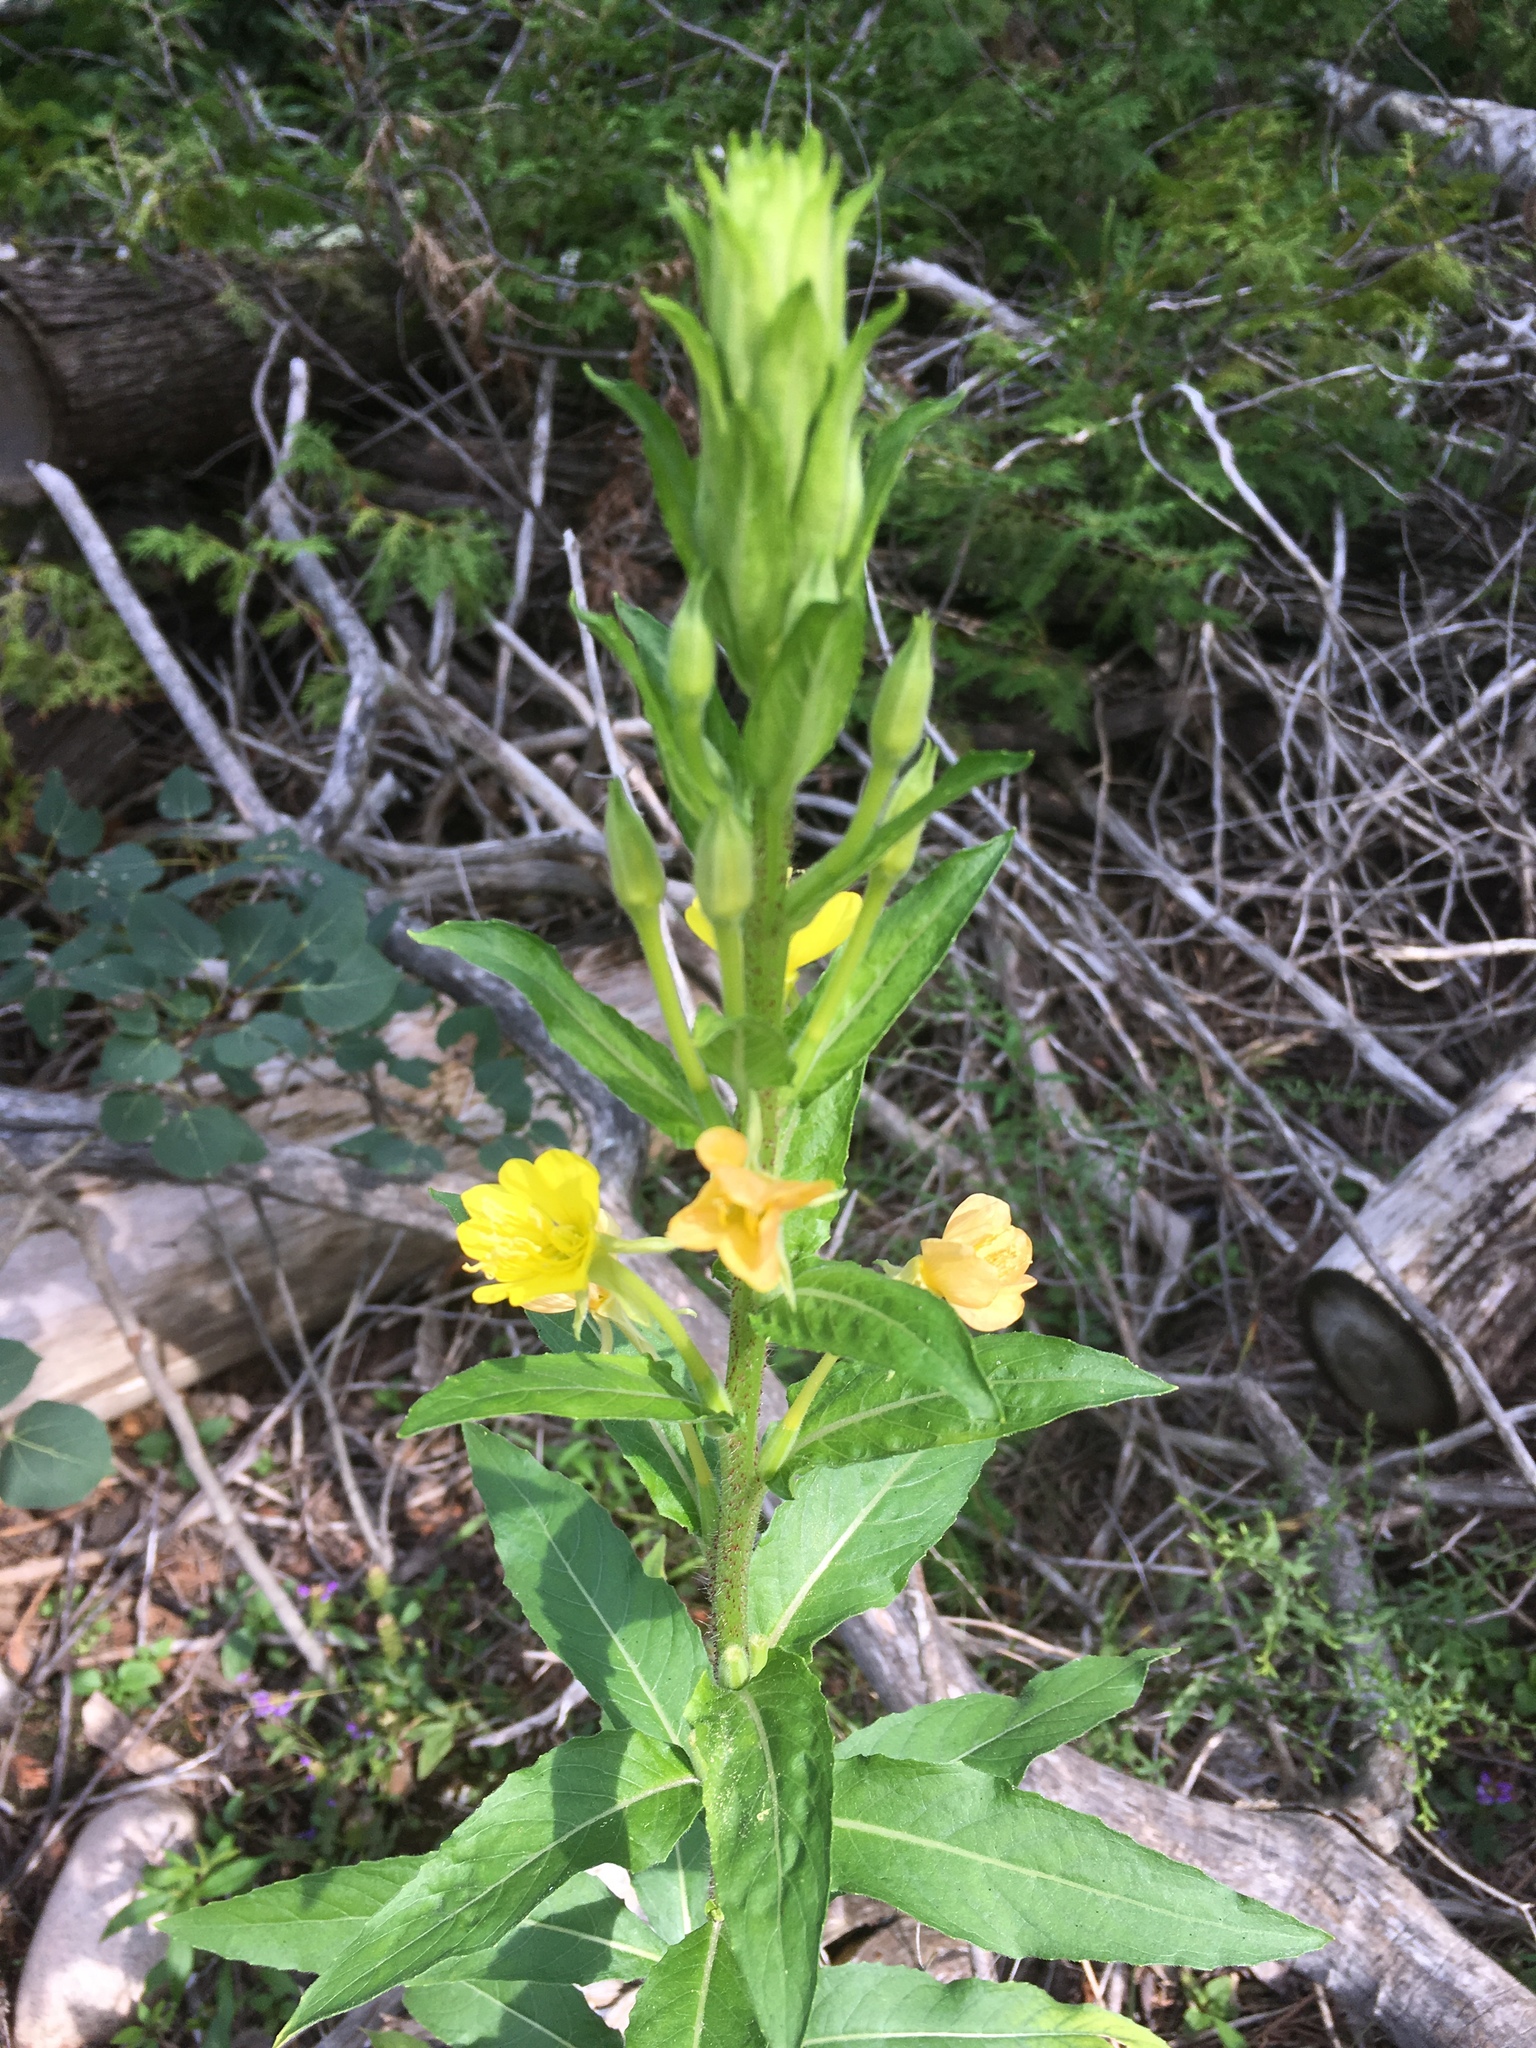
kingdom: Plantae
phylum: Tracheophyta
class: Magnoliopsida
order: Myrtales
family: Onagraceae
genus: Oenothera
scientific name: Oenothera biennis
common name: Common evening-primrose
